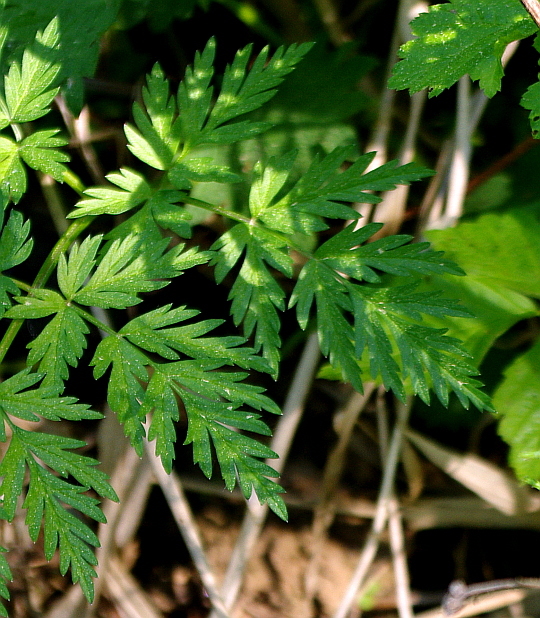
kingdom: Plantae
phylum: Tracheophyta
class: Magnoliopsida
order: Apiales
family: Apiaceae
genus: Anthriscus
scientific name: Anthriscus sylvestris
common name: Cow parsley
